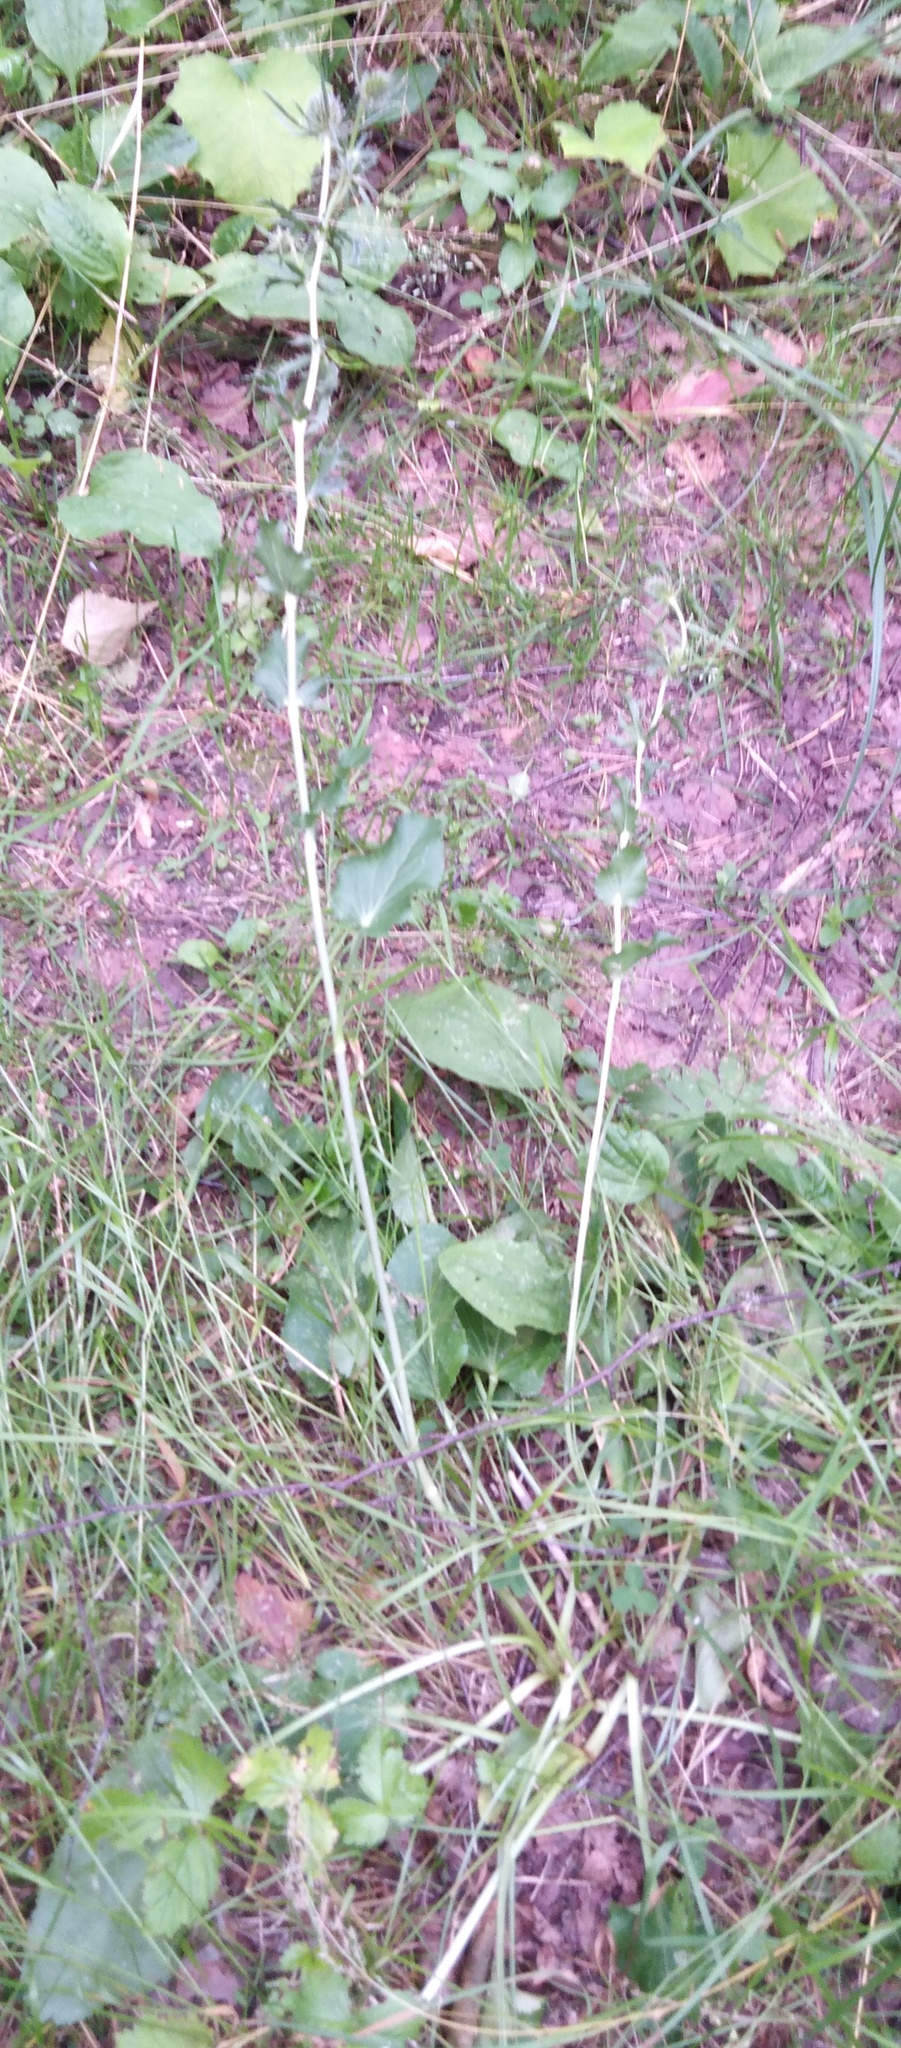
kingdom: Plantae
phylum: Tracheophyta
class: Magnoliopsida
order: Apiales
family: Apiaceae
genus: Eryngium
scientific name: Eryngium planum
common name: Blue eryngo
